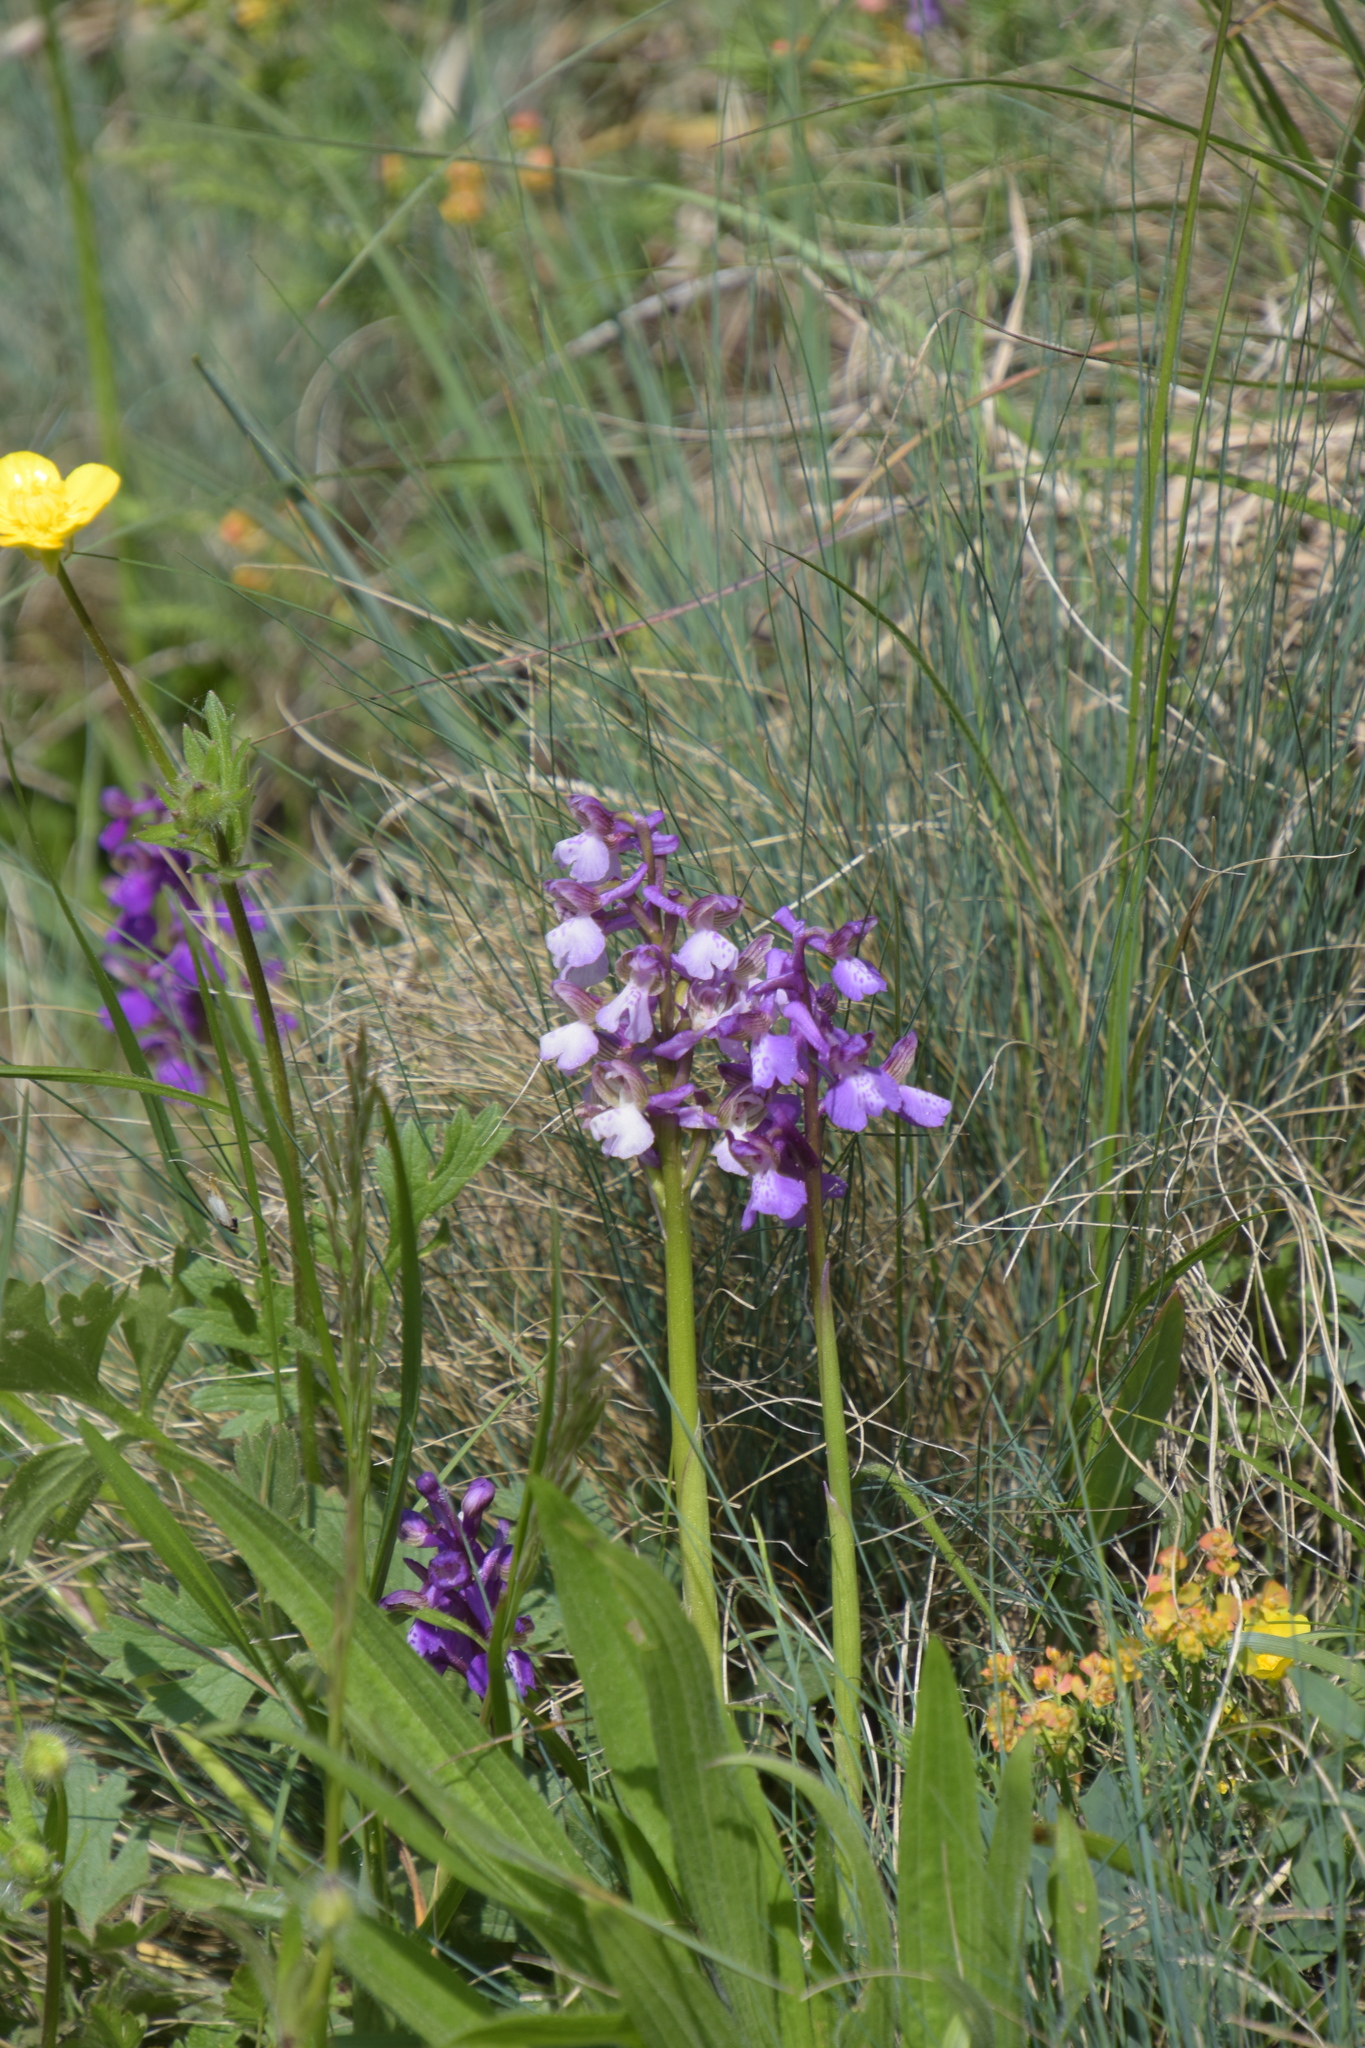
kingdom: Plantae
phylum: Tracheophyta
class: Liliopsida
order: Asparagales
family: Orchidaceae
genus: Anacamptis
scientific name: Anacamptis morio
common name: Green-winged orchid
